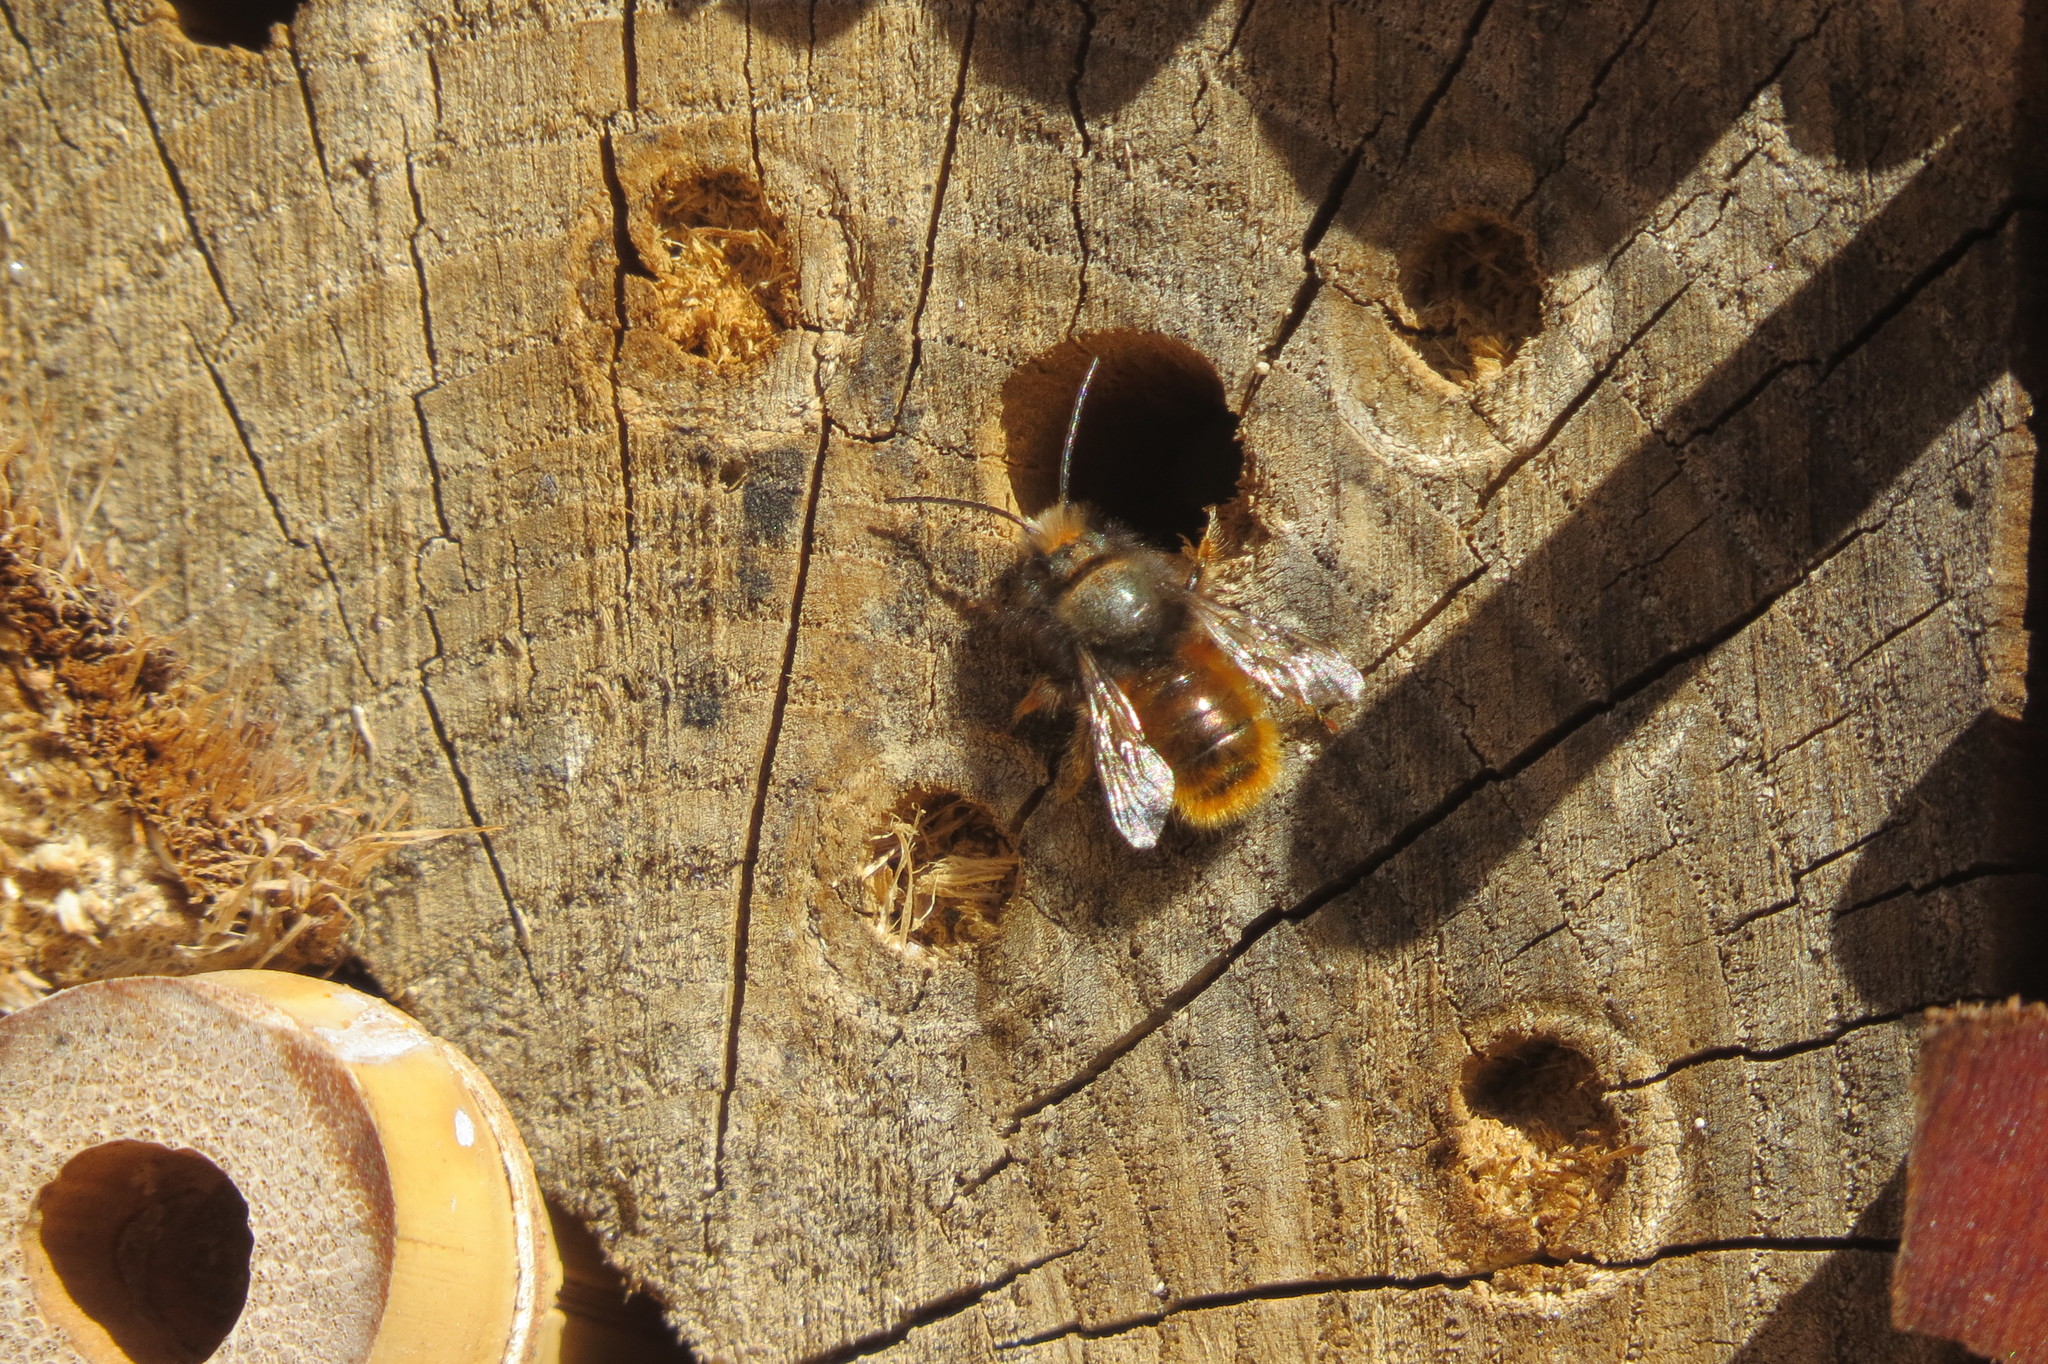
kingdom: Animalia
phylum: Arthropoda
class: Insecta
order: Hymenoptera
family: Megachilidae
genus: Osmia
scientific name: Osmia cornuta
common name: Mason bee
